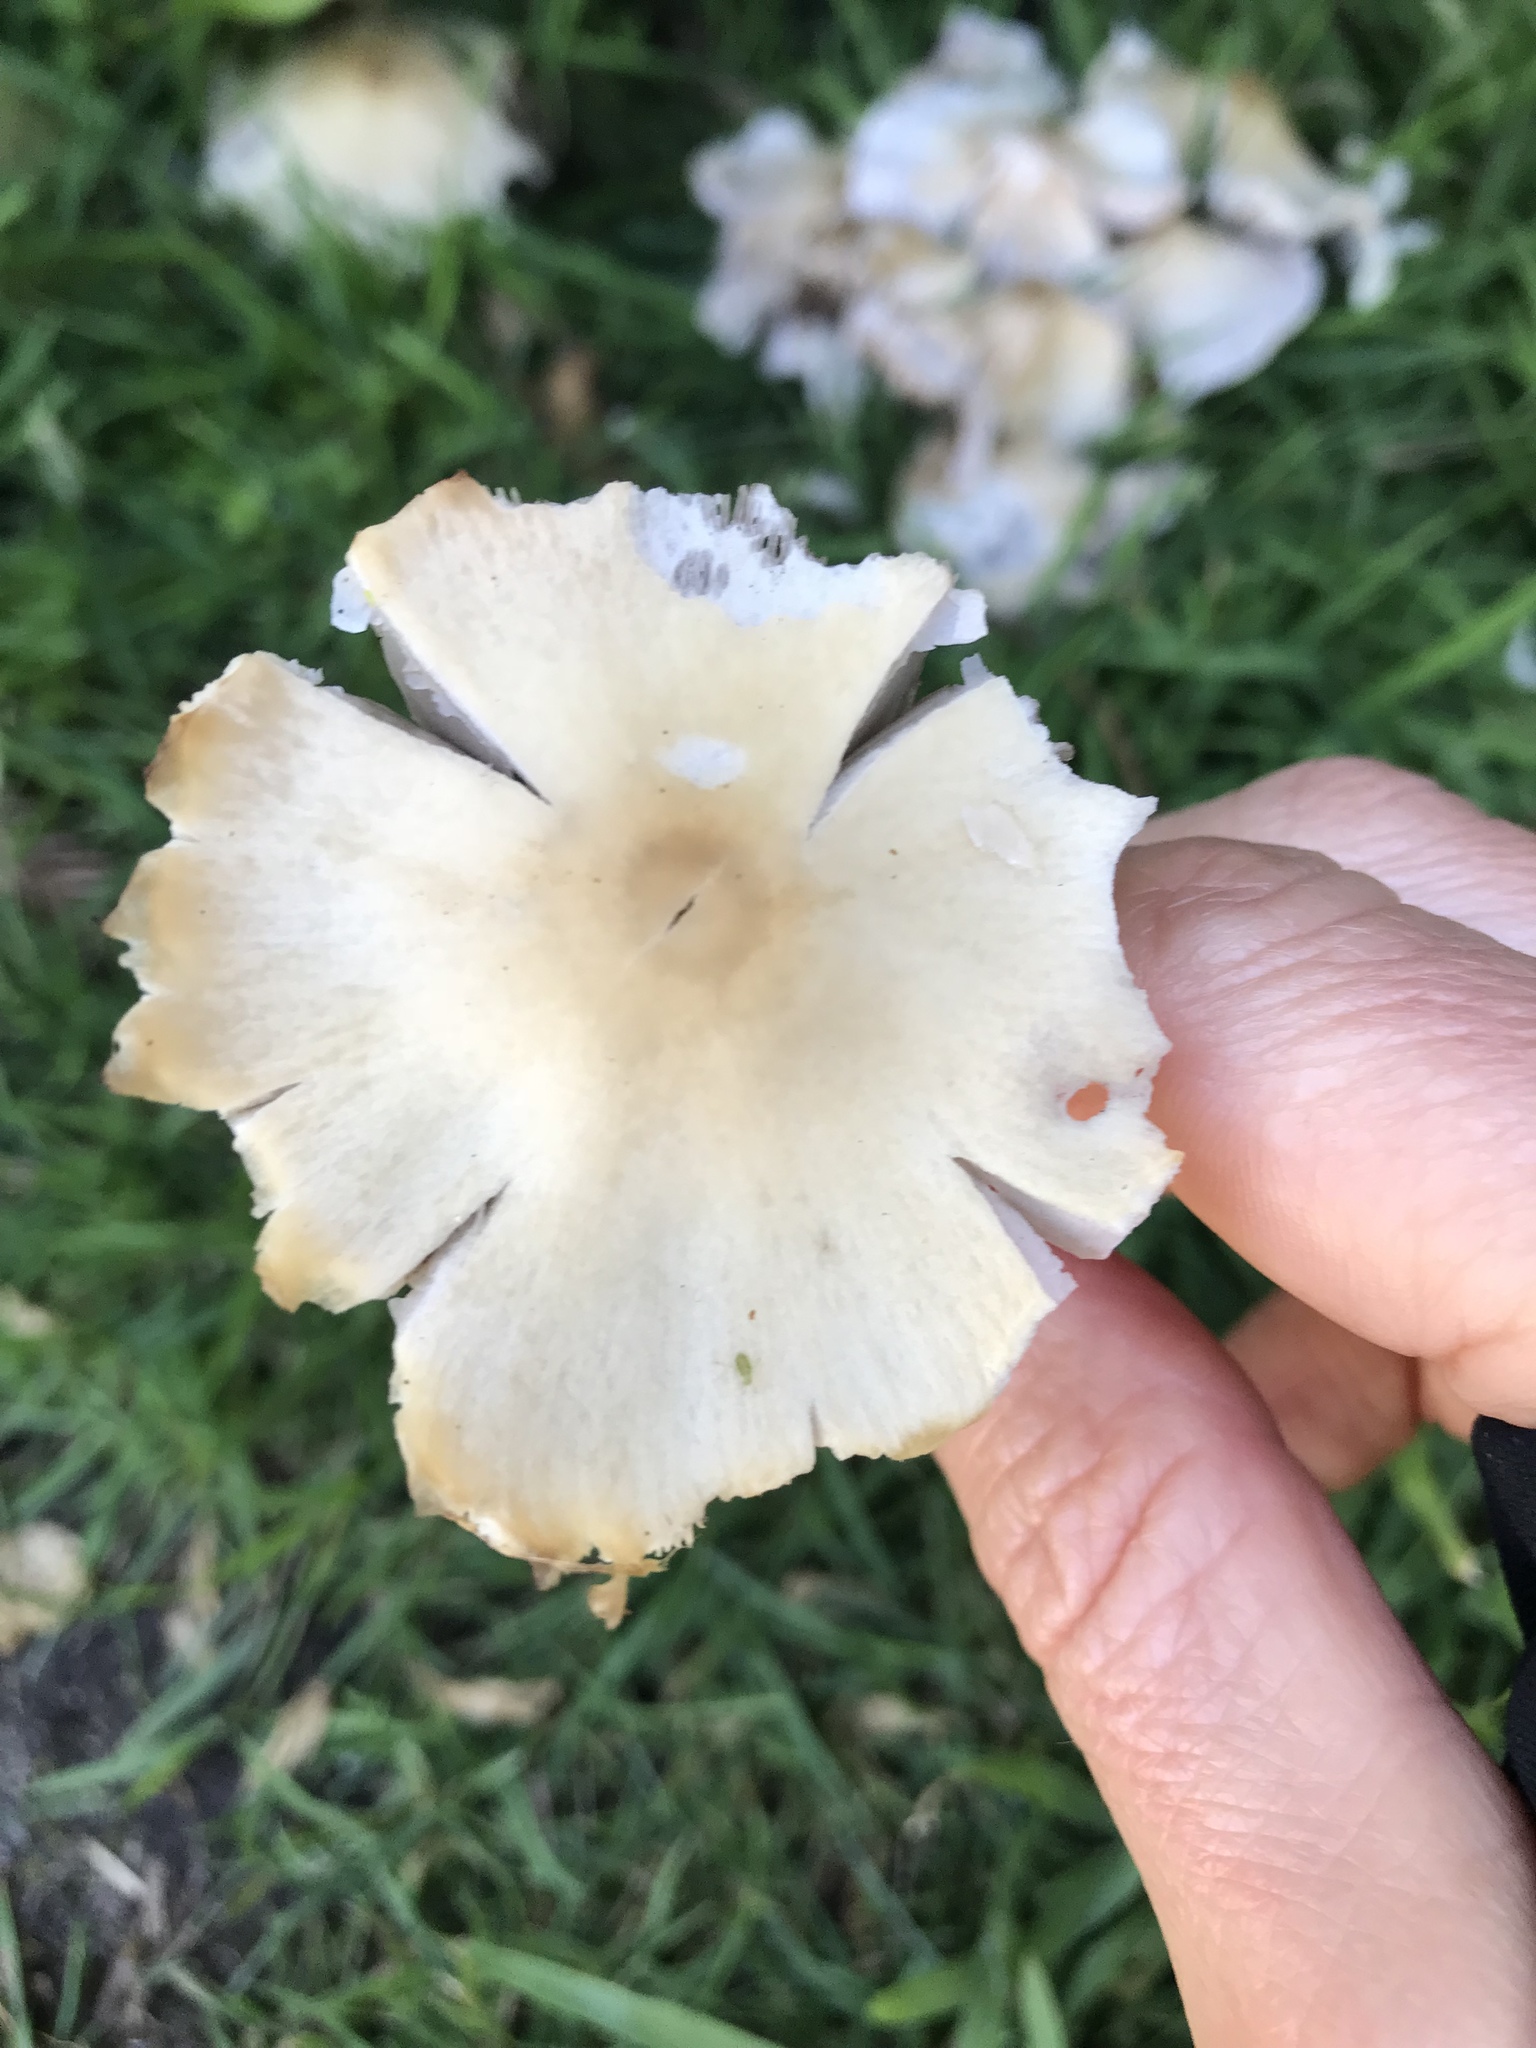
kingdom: Fungi
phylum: Basidiomycota
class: Agaricomycetes
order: Agaricales
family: Psathyrellaceae
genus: Candolleomyces
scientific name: Candolleomyces candolleanus
